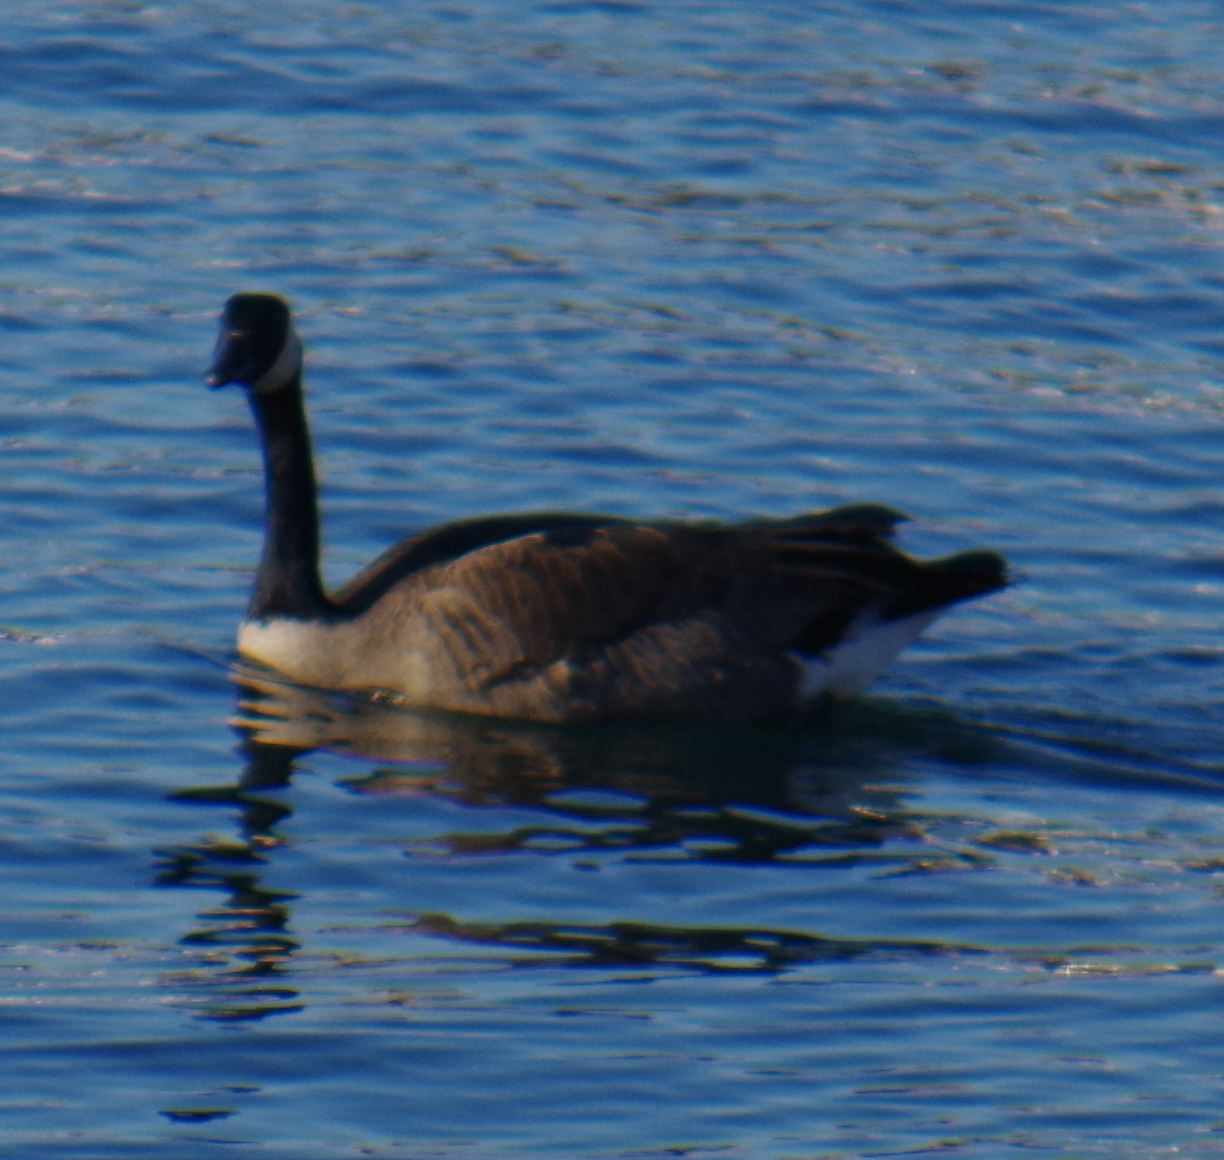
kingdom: Animalia
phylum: Chordata
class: Aves
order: Anseriformes
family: Anatidae
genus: Branta
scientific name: Branta canadensis
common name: Canada goose
